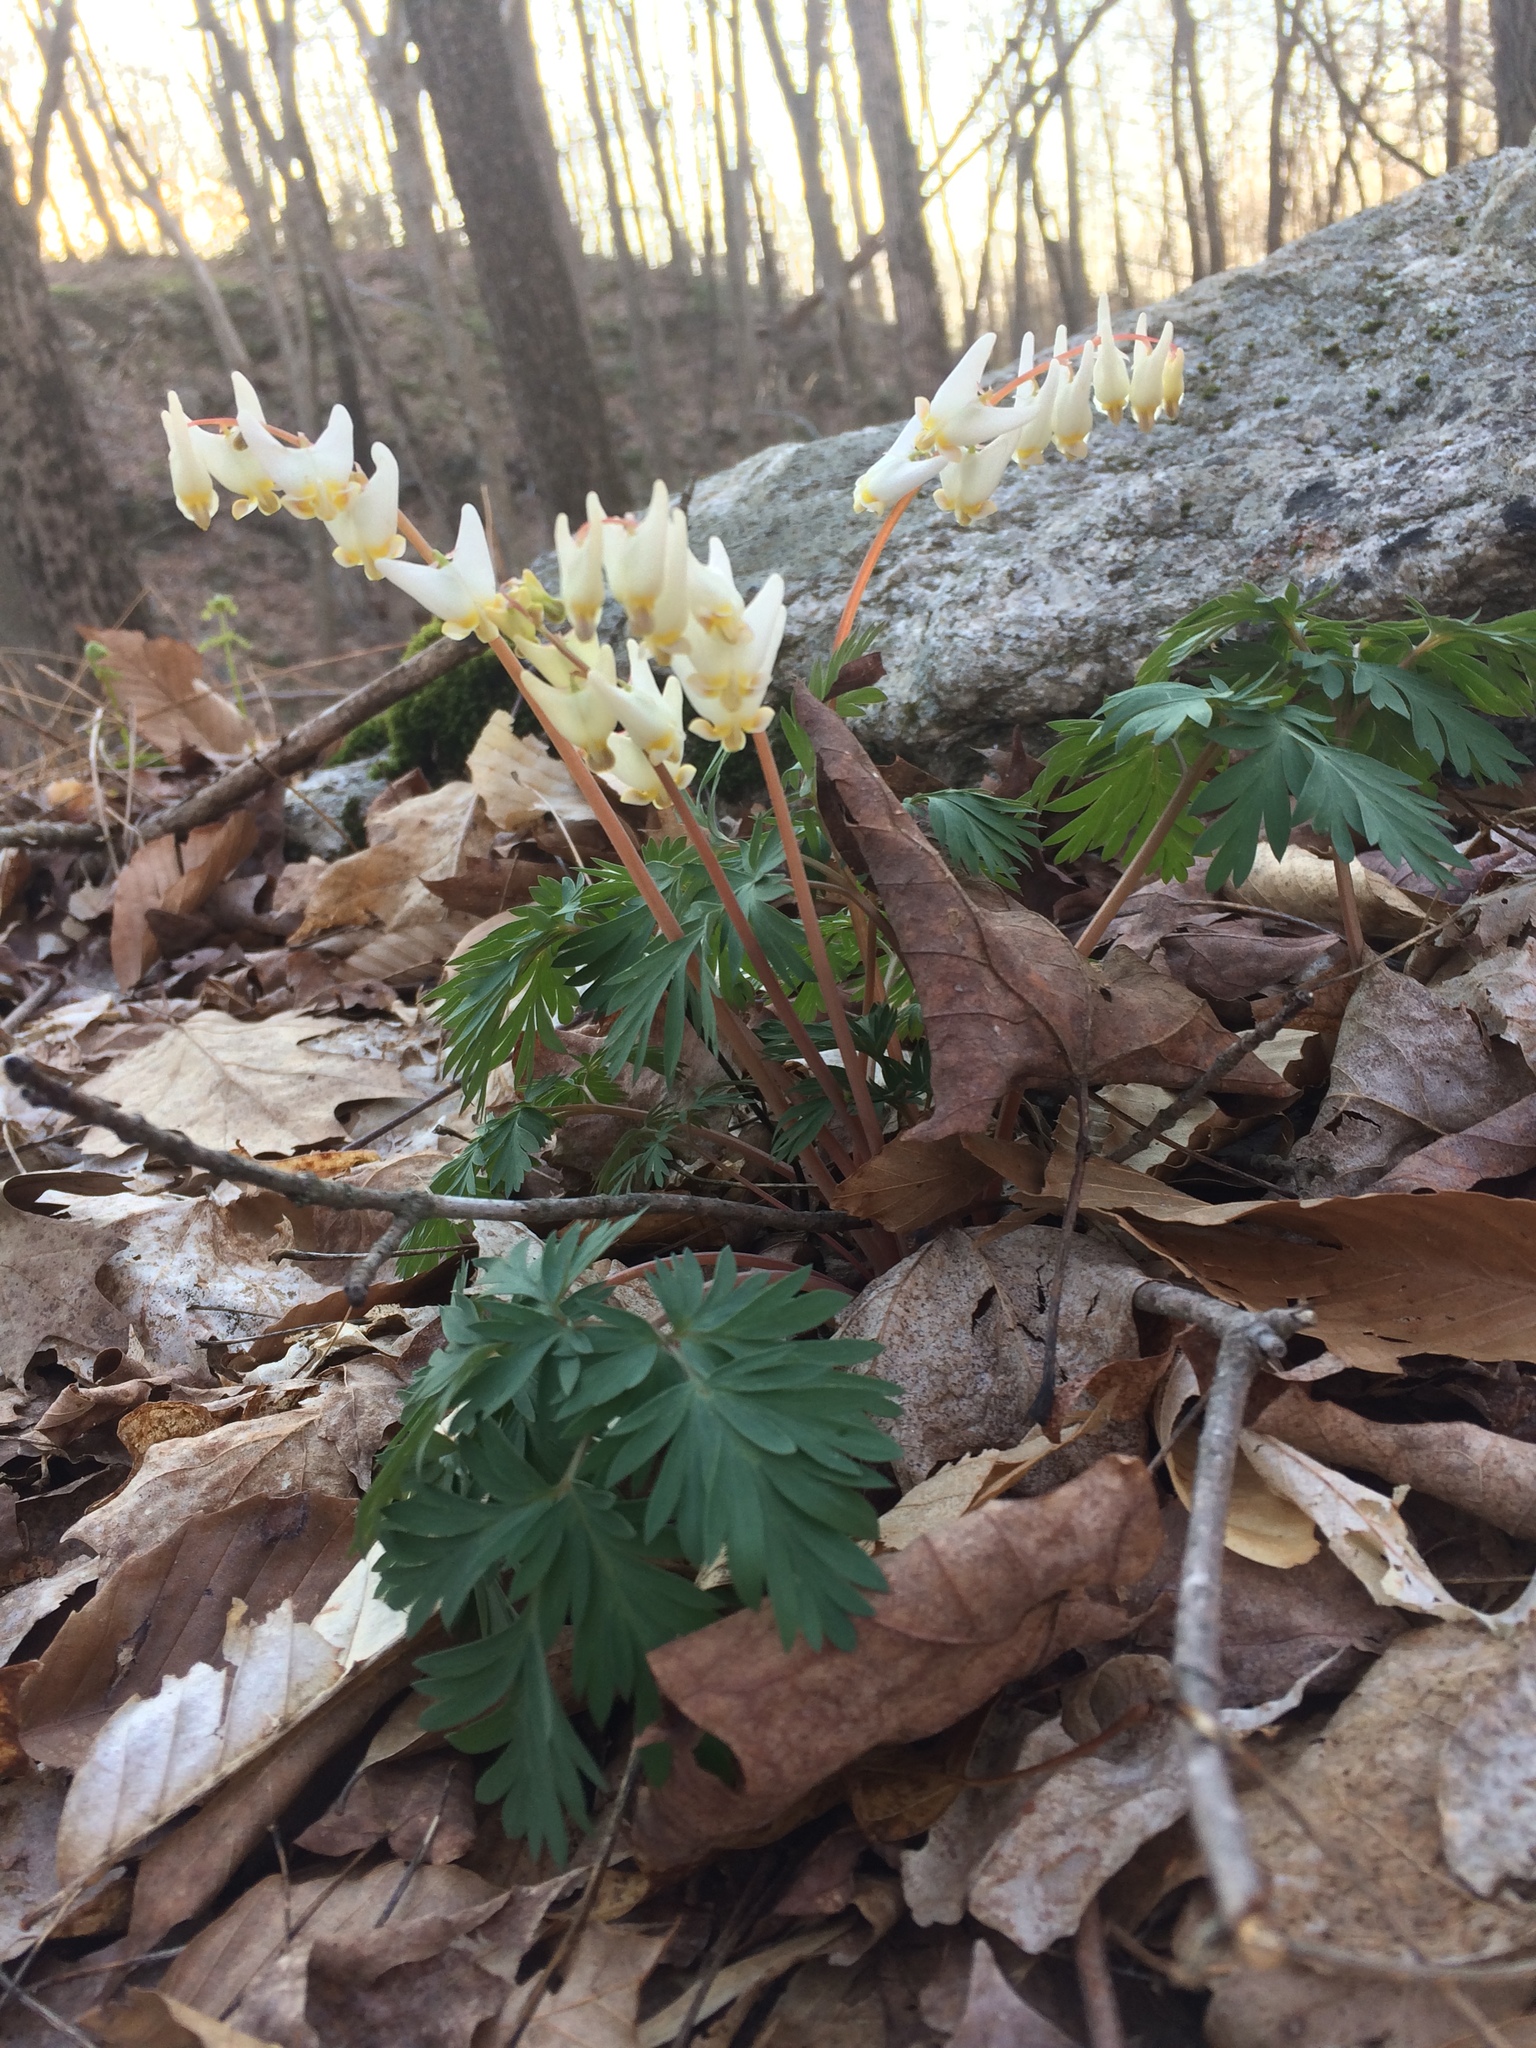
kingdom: Plantae
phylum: Tracheophyta
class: Magnoliopsida
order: Ranunculales
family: Papaveraceae
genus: Dicentra
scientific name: Dicentra cucullaria
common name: Dutchman's breeches
